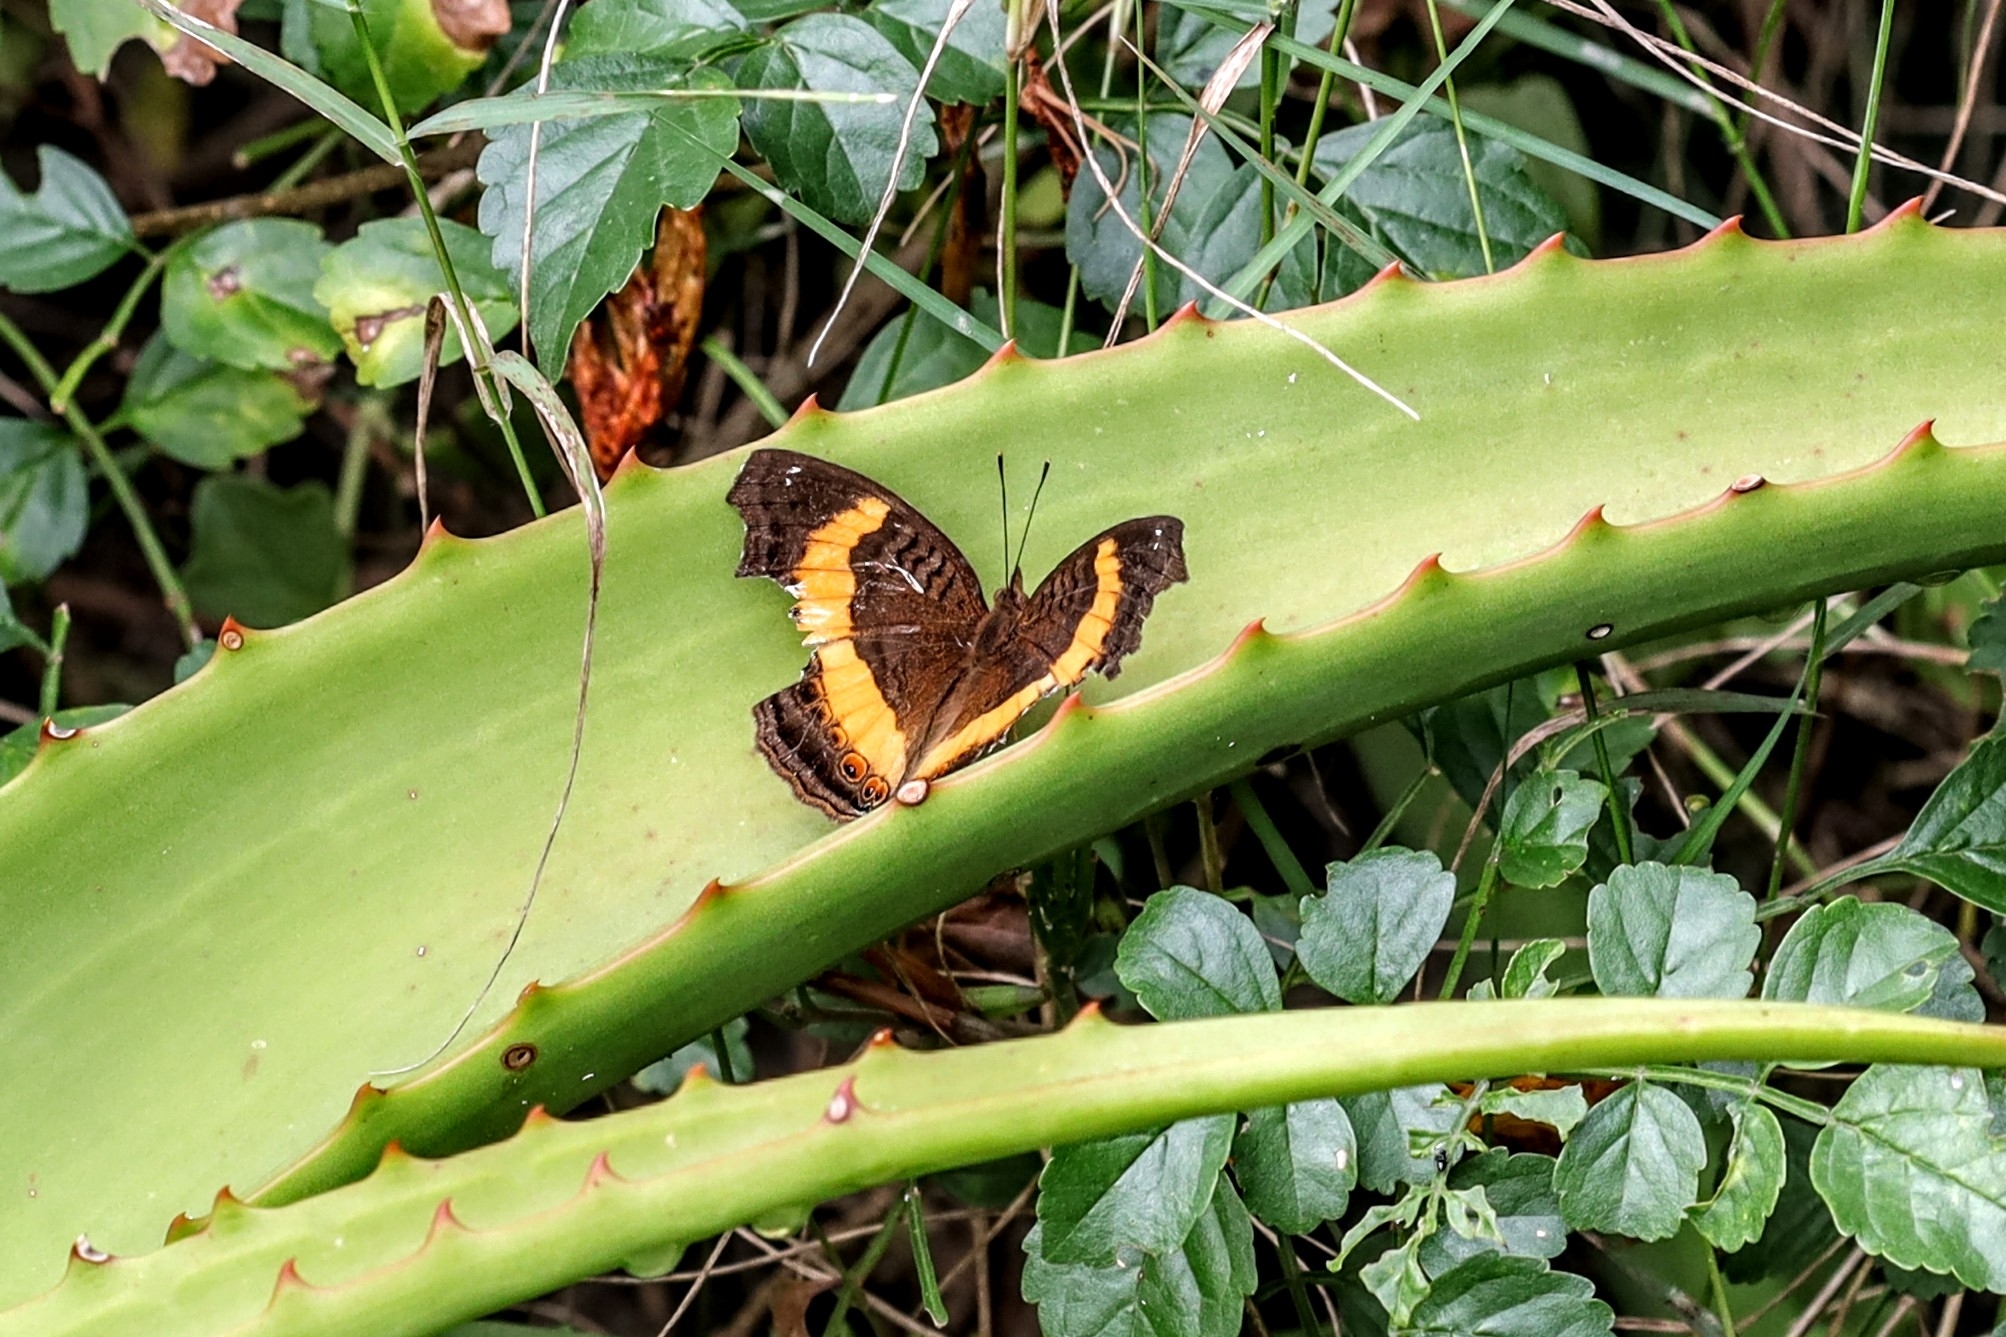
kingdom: Animalia
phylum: Arthropoda
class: Insecta
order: Lepidoptera
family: Nymphalidae
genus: Junonia
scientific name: Junonia terea
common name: Soldier pansy
